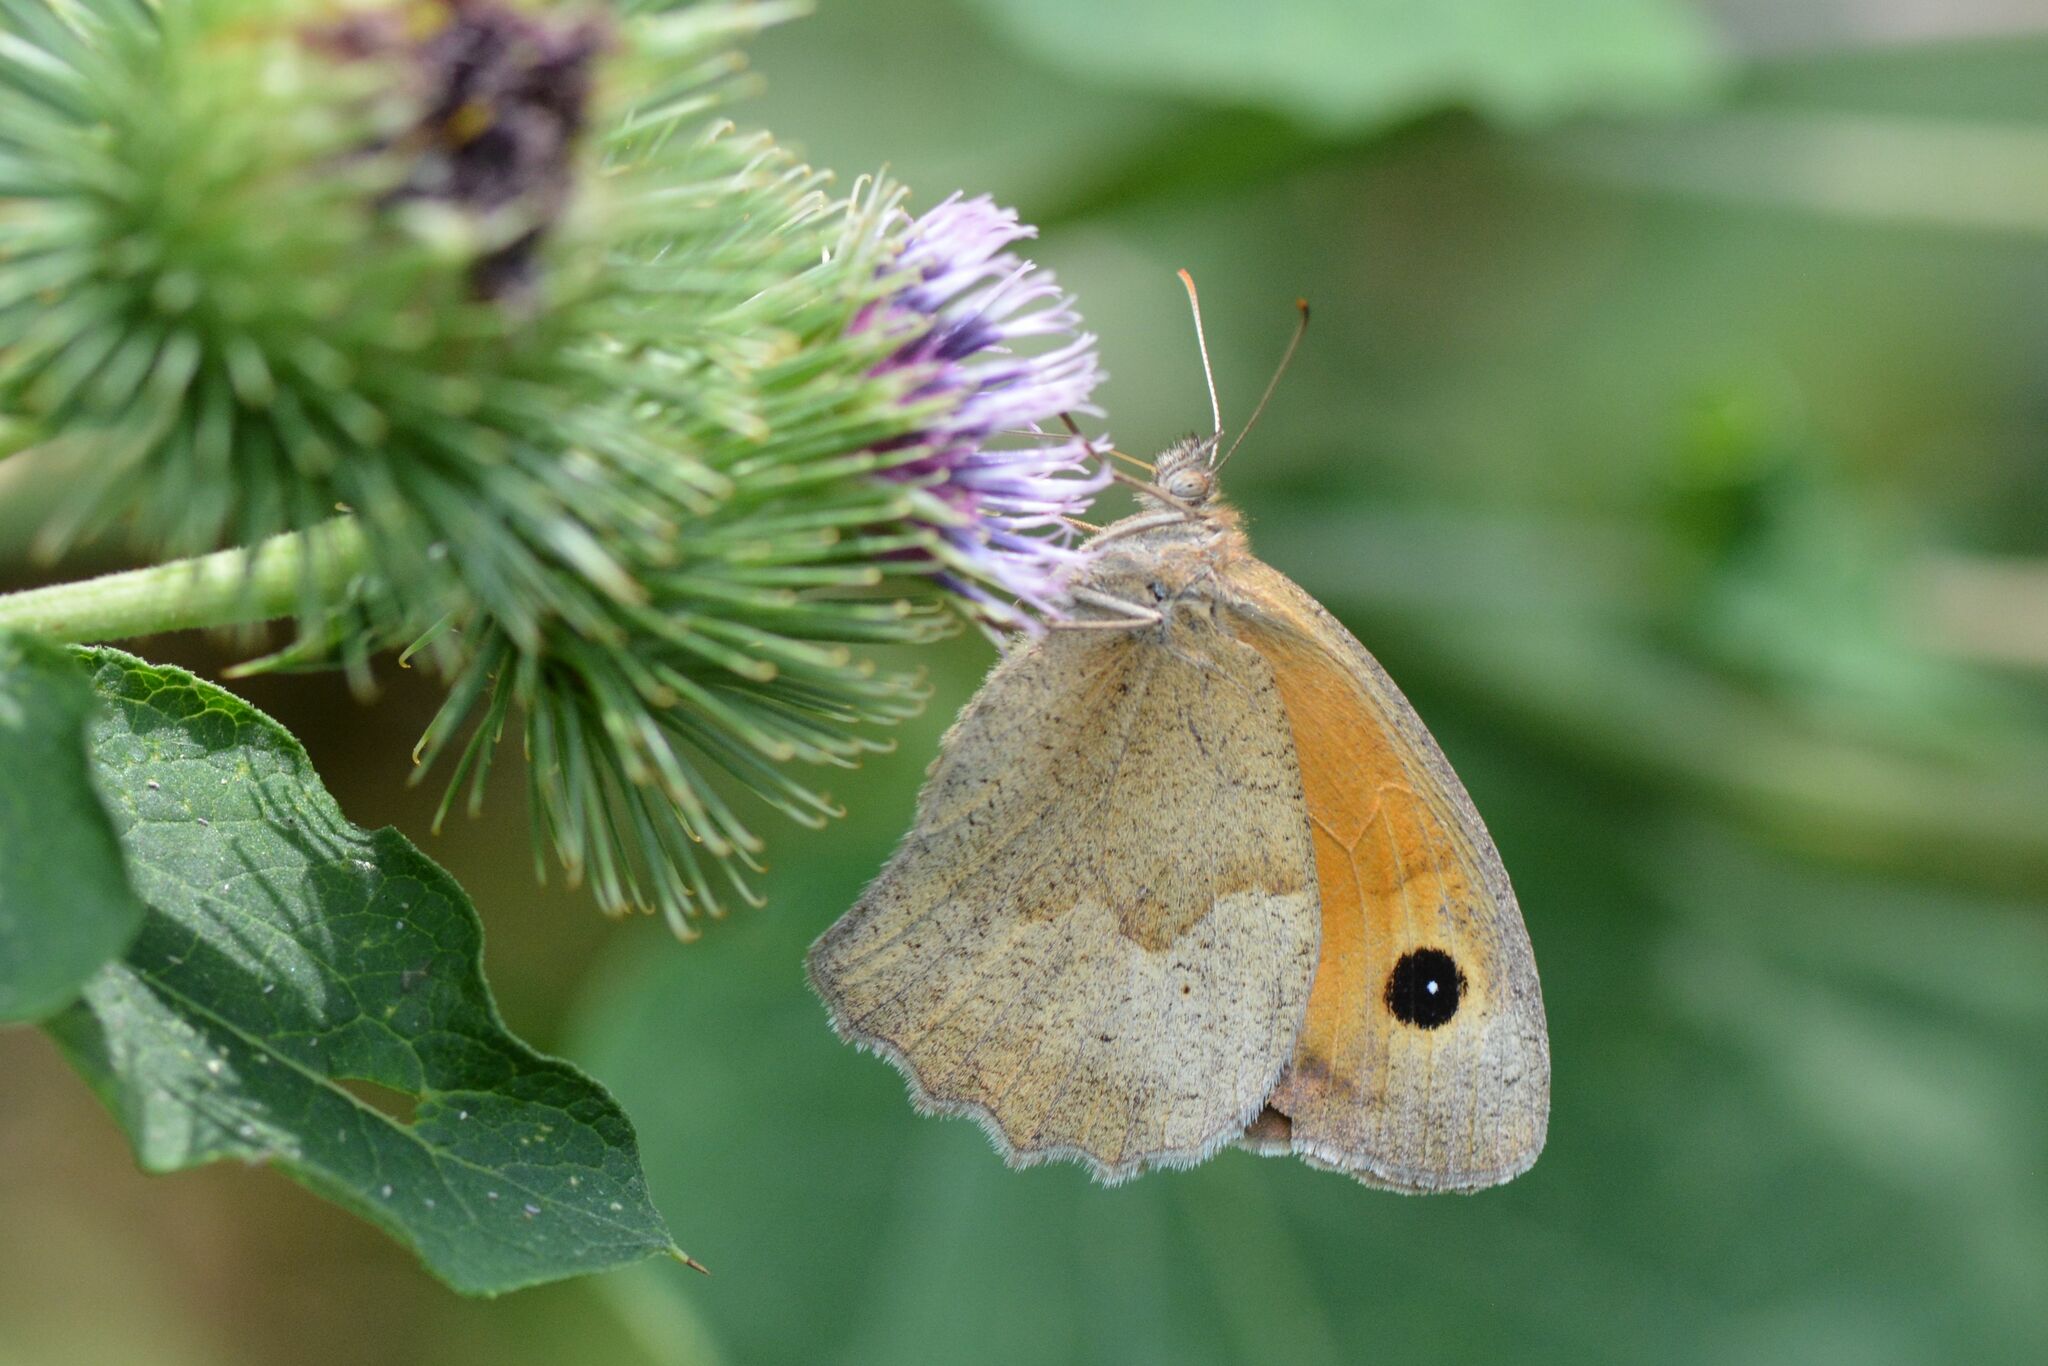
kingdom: Animalia
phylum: Arthropoda
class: Insecta
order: Lepidoptera
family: Nymphalidae
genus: Maniola
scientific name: Maniola jurtina
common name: Meadow brown
